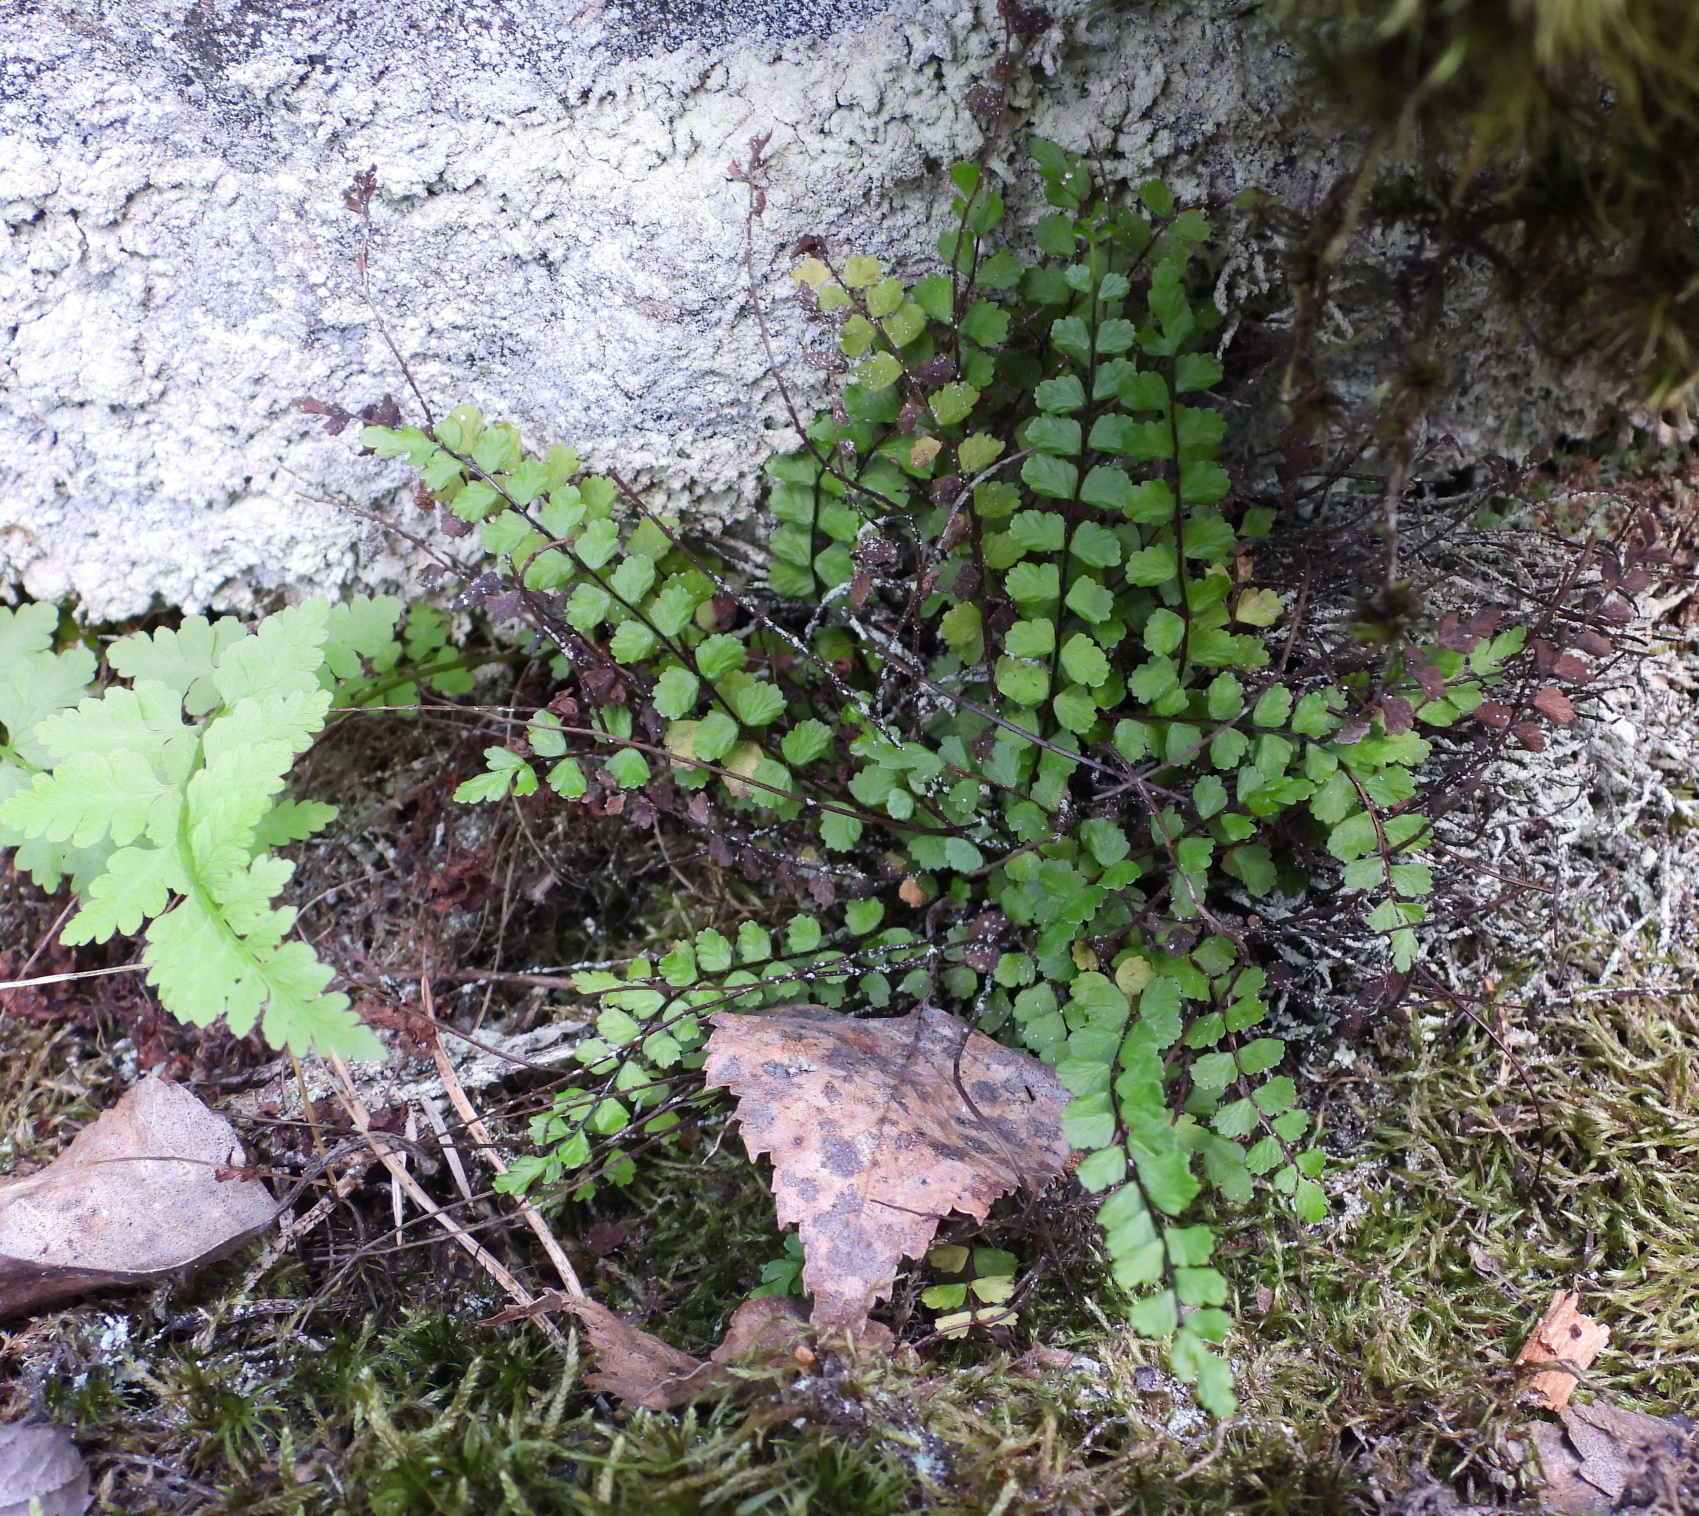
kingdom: Plantae
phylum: Tracheophyta
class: Polypodiopsida
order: Polypodiales
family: Aspleniaceae
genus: Asplenium
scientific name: Asplenium trichomanes
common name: Maidenhair spleenwort
